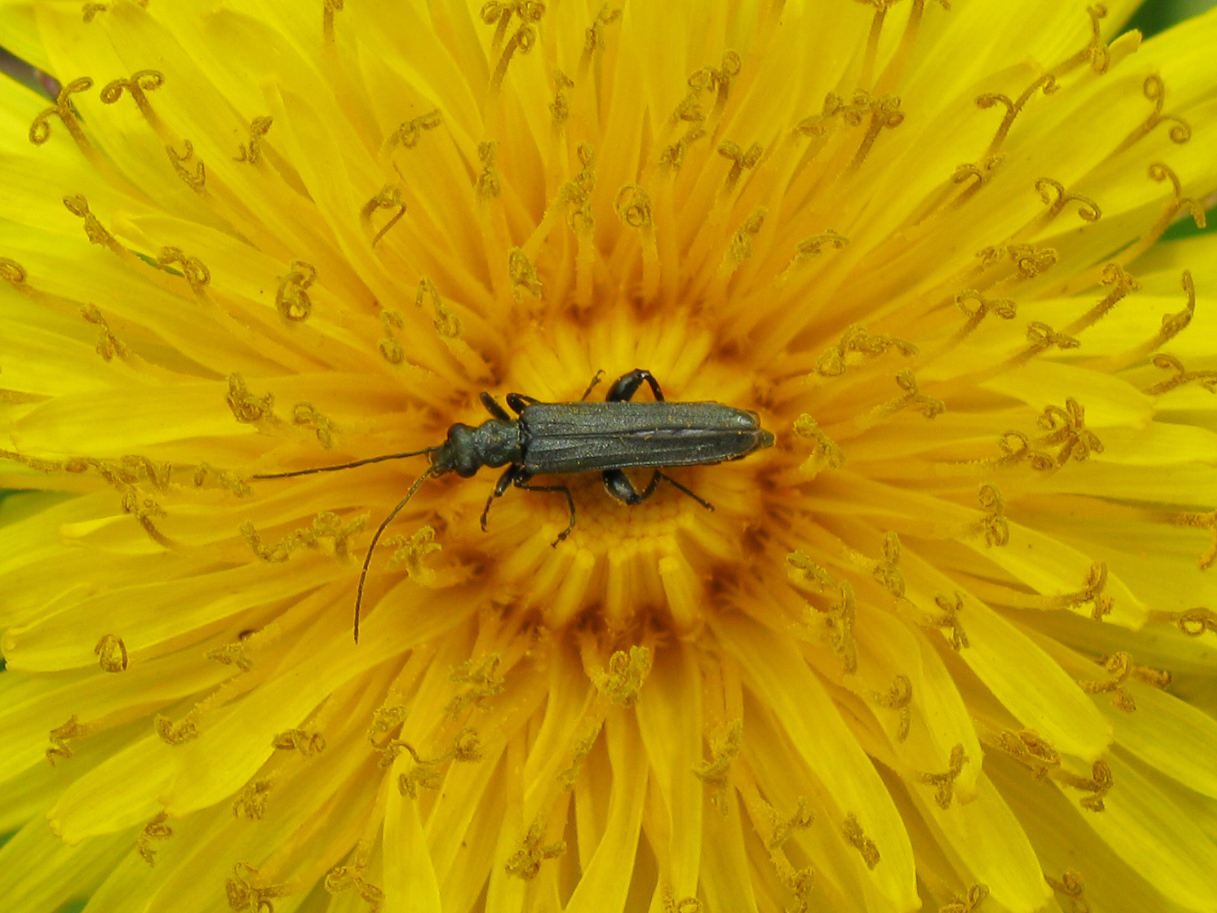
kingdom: Animalia
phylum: Arthropoda
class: Insecta
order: Coleoptera
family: Oedemeridae
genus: Oedemera
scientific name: Oedemera virescens
